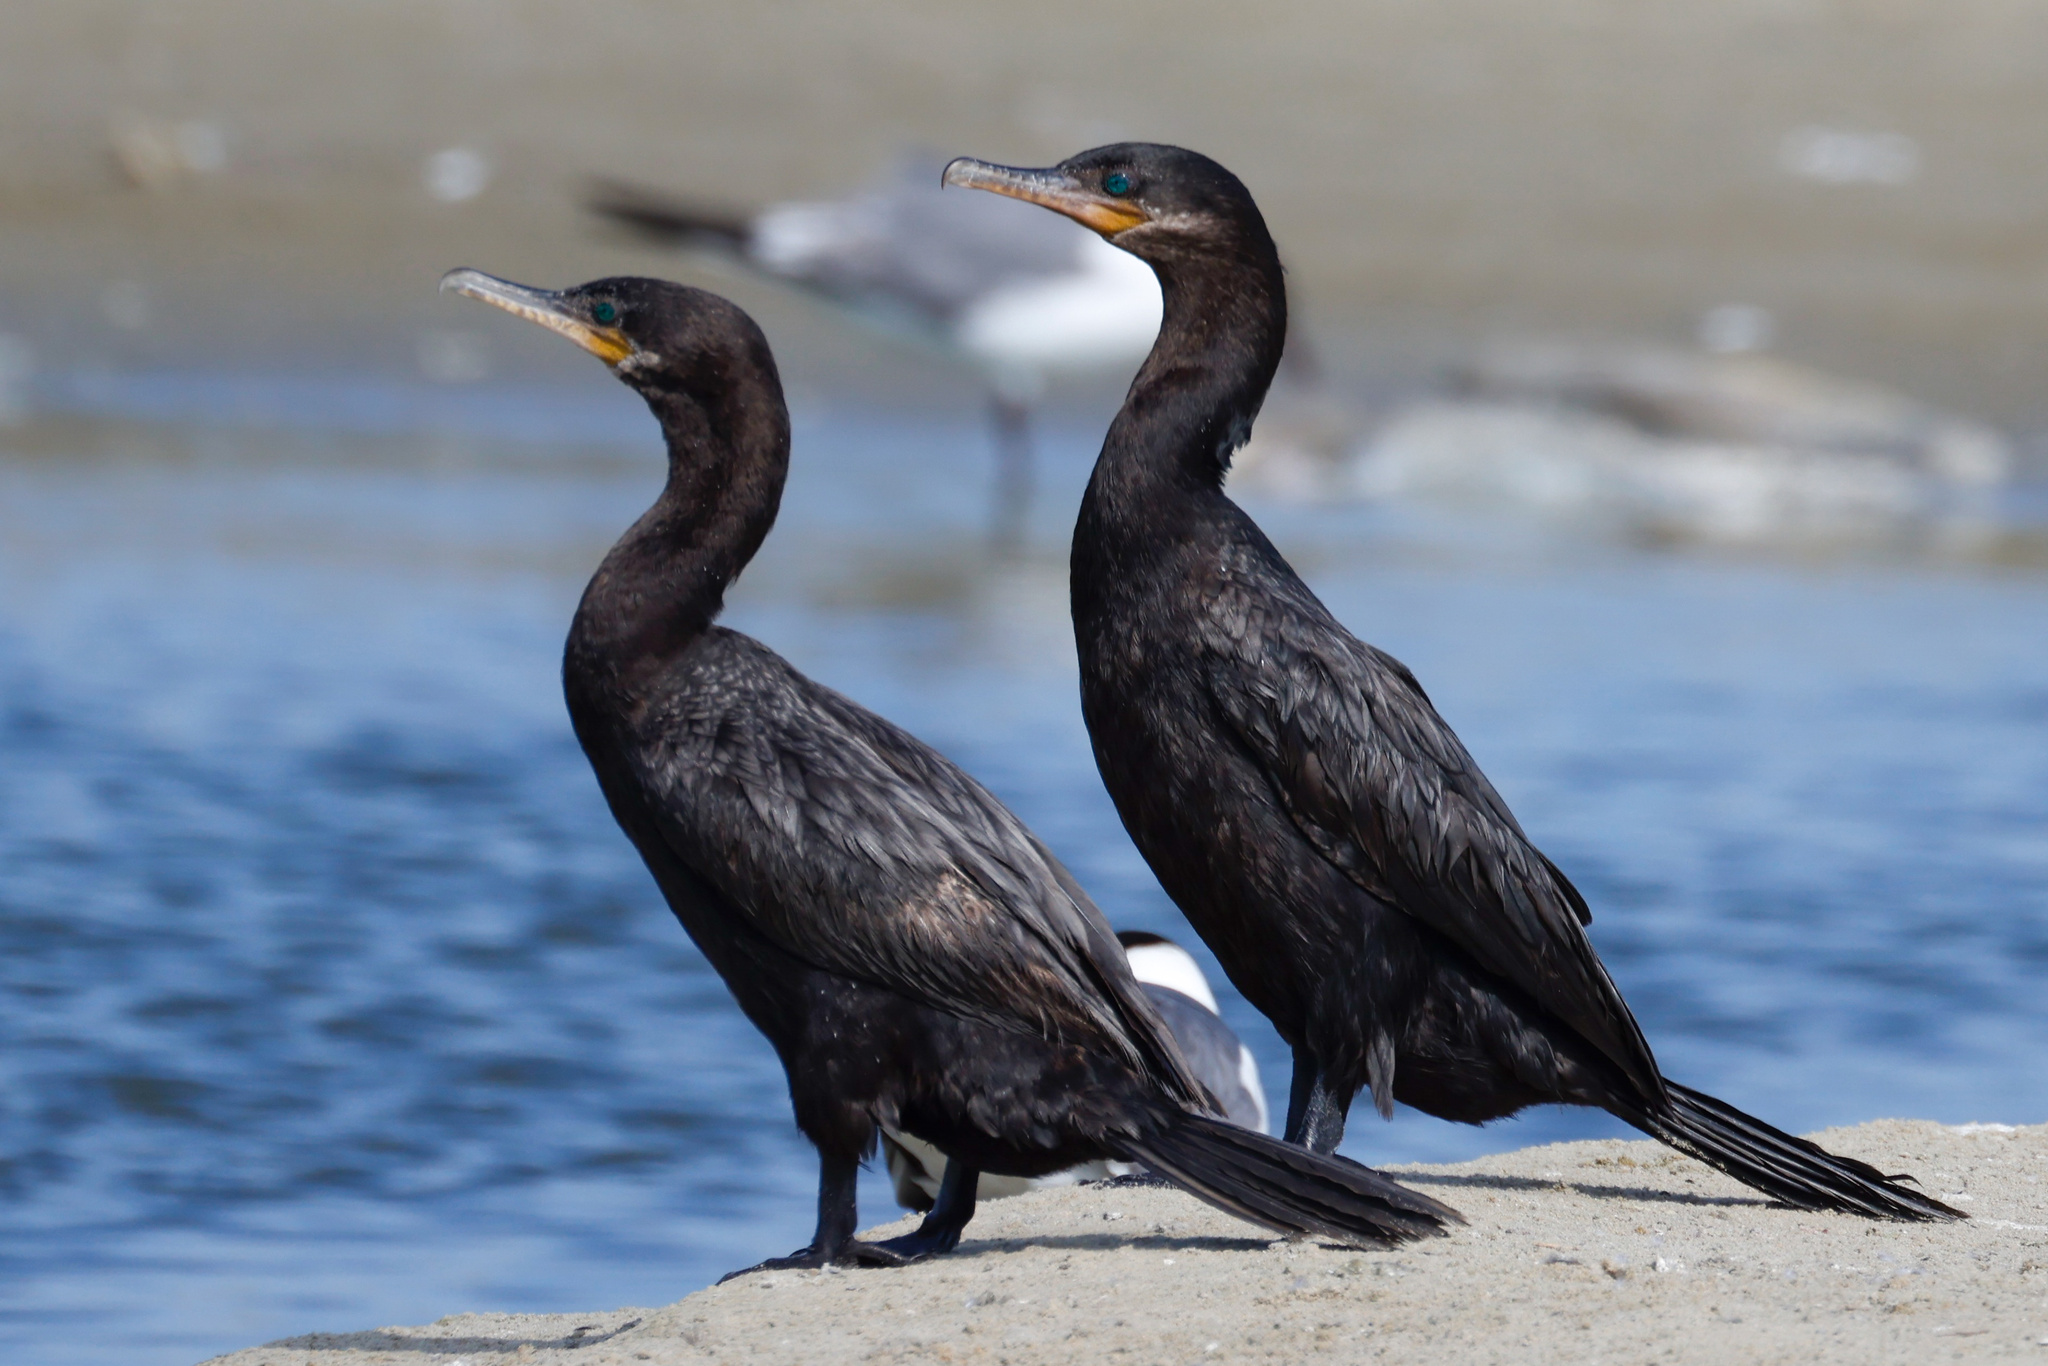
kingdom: Animalia
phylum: Chordata
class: Aves
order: Suliformes
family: Phalacrocoracidae
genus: Phalacrocorax
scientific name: Phalacrocorax brasilianus
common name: Neotropic cormorant
